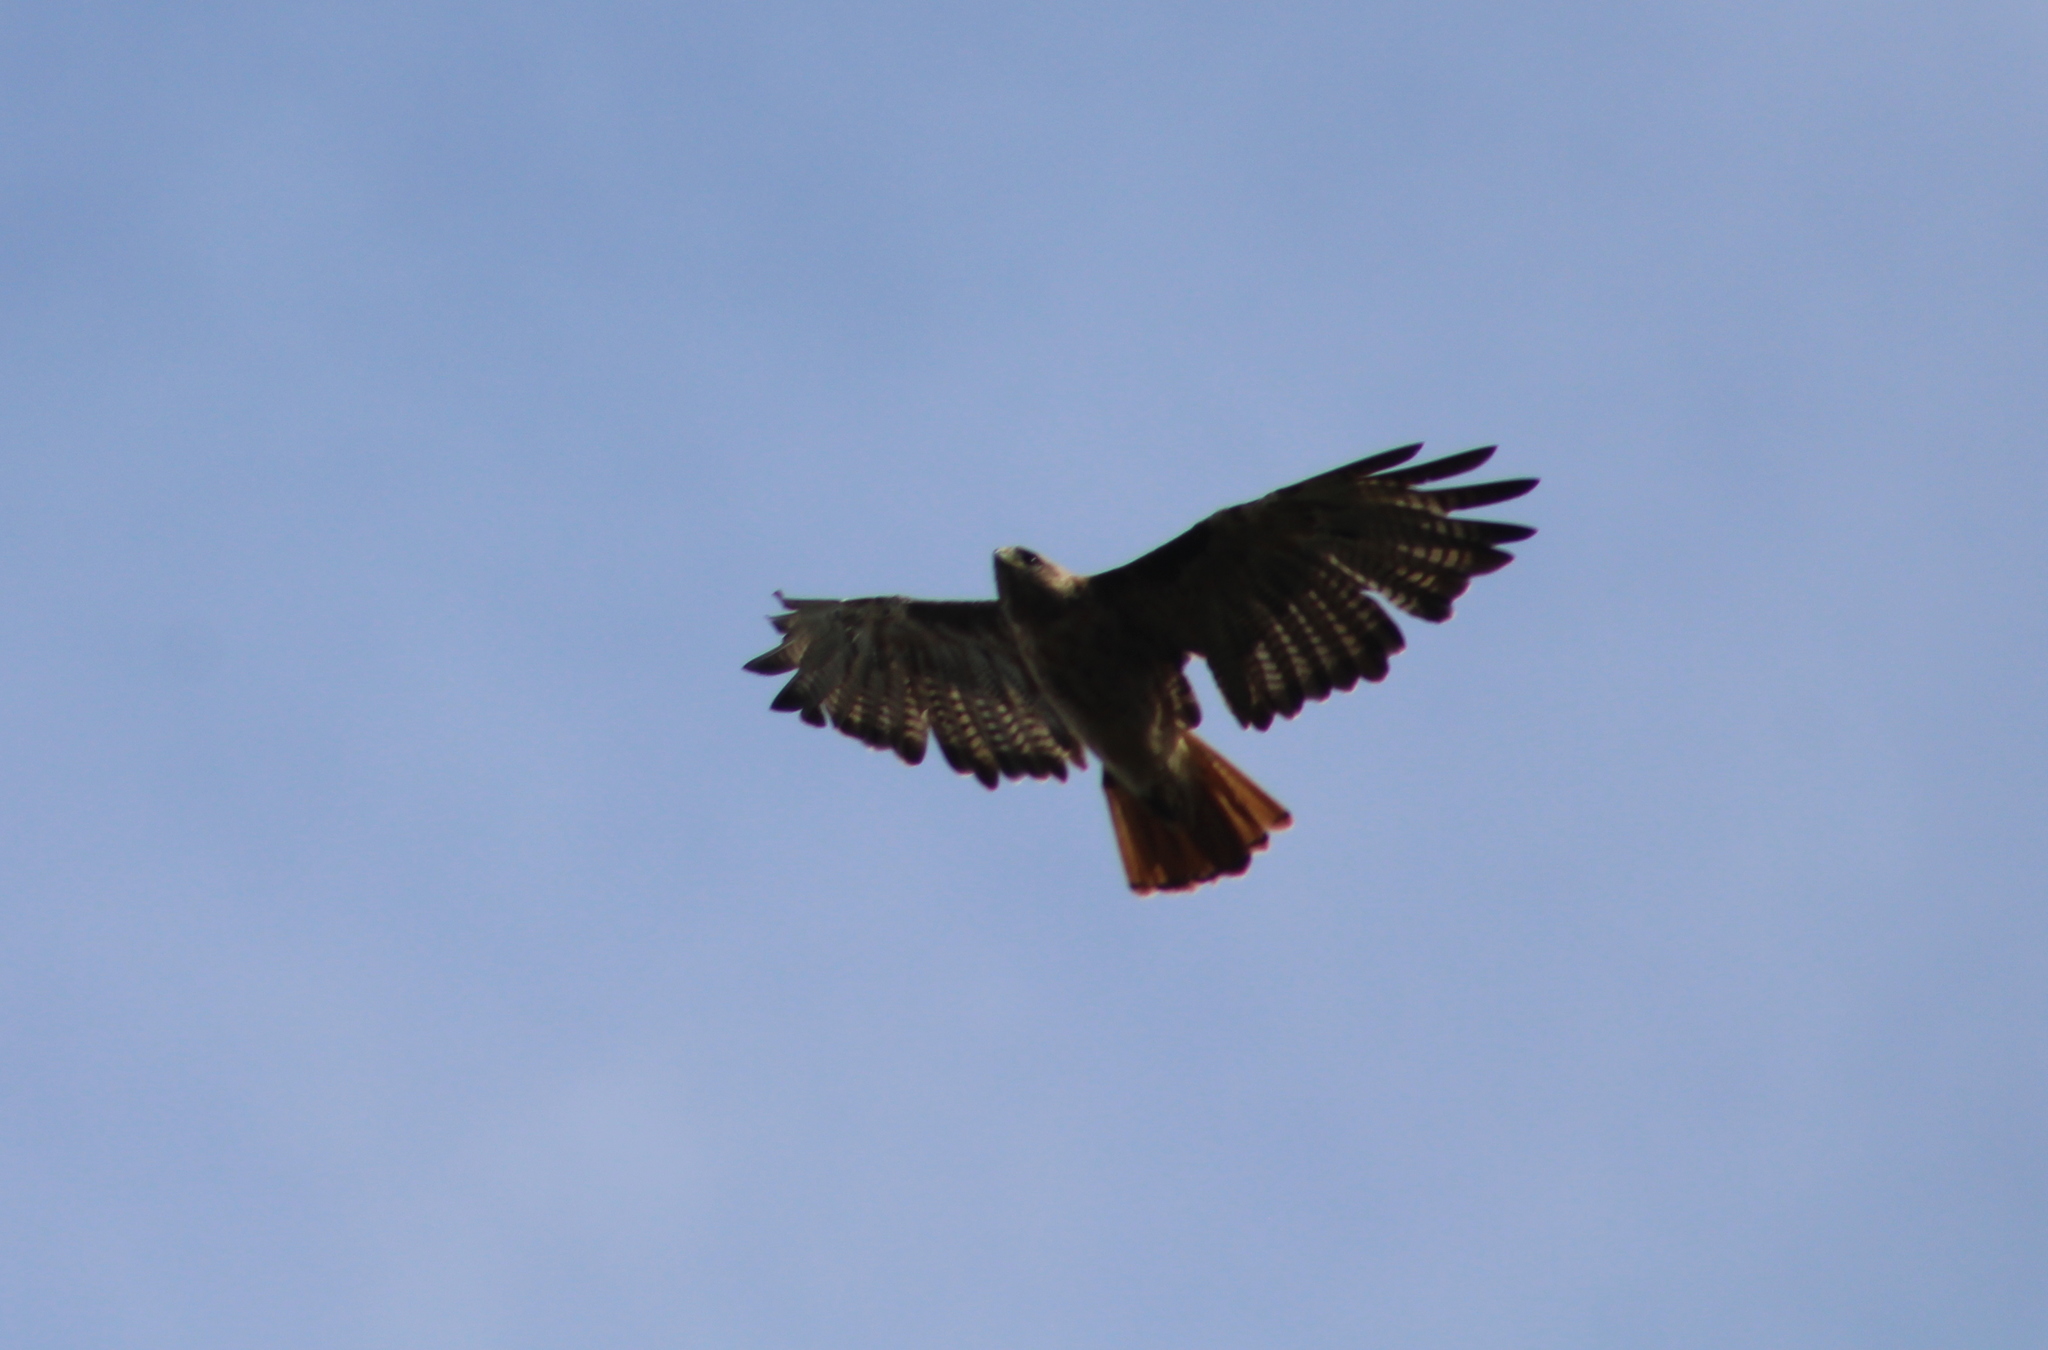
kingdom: Animalia
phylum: Chordata
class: Aves
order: Accipitriformes
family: Accipitridae
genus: Buteo
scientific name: Buteo jamaicensis
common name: Red-tailed hawk
